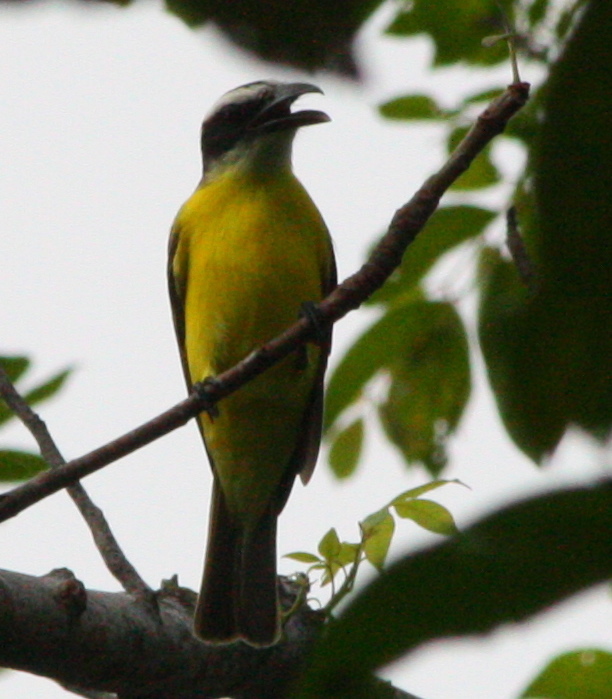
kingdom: Animalia
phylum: Chordata
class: Aves
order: Passeriformes
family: Tyrannidae
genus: Megarynchus
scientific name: Megarynchus pitangua
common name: Boat-billed flycatcher
